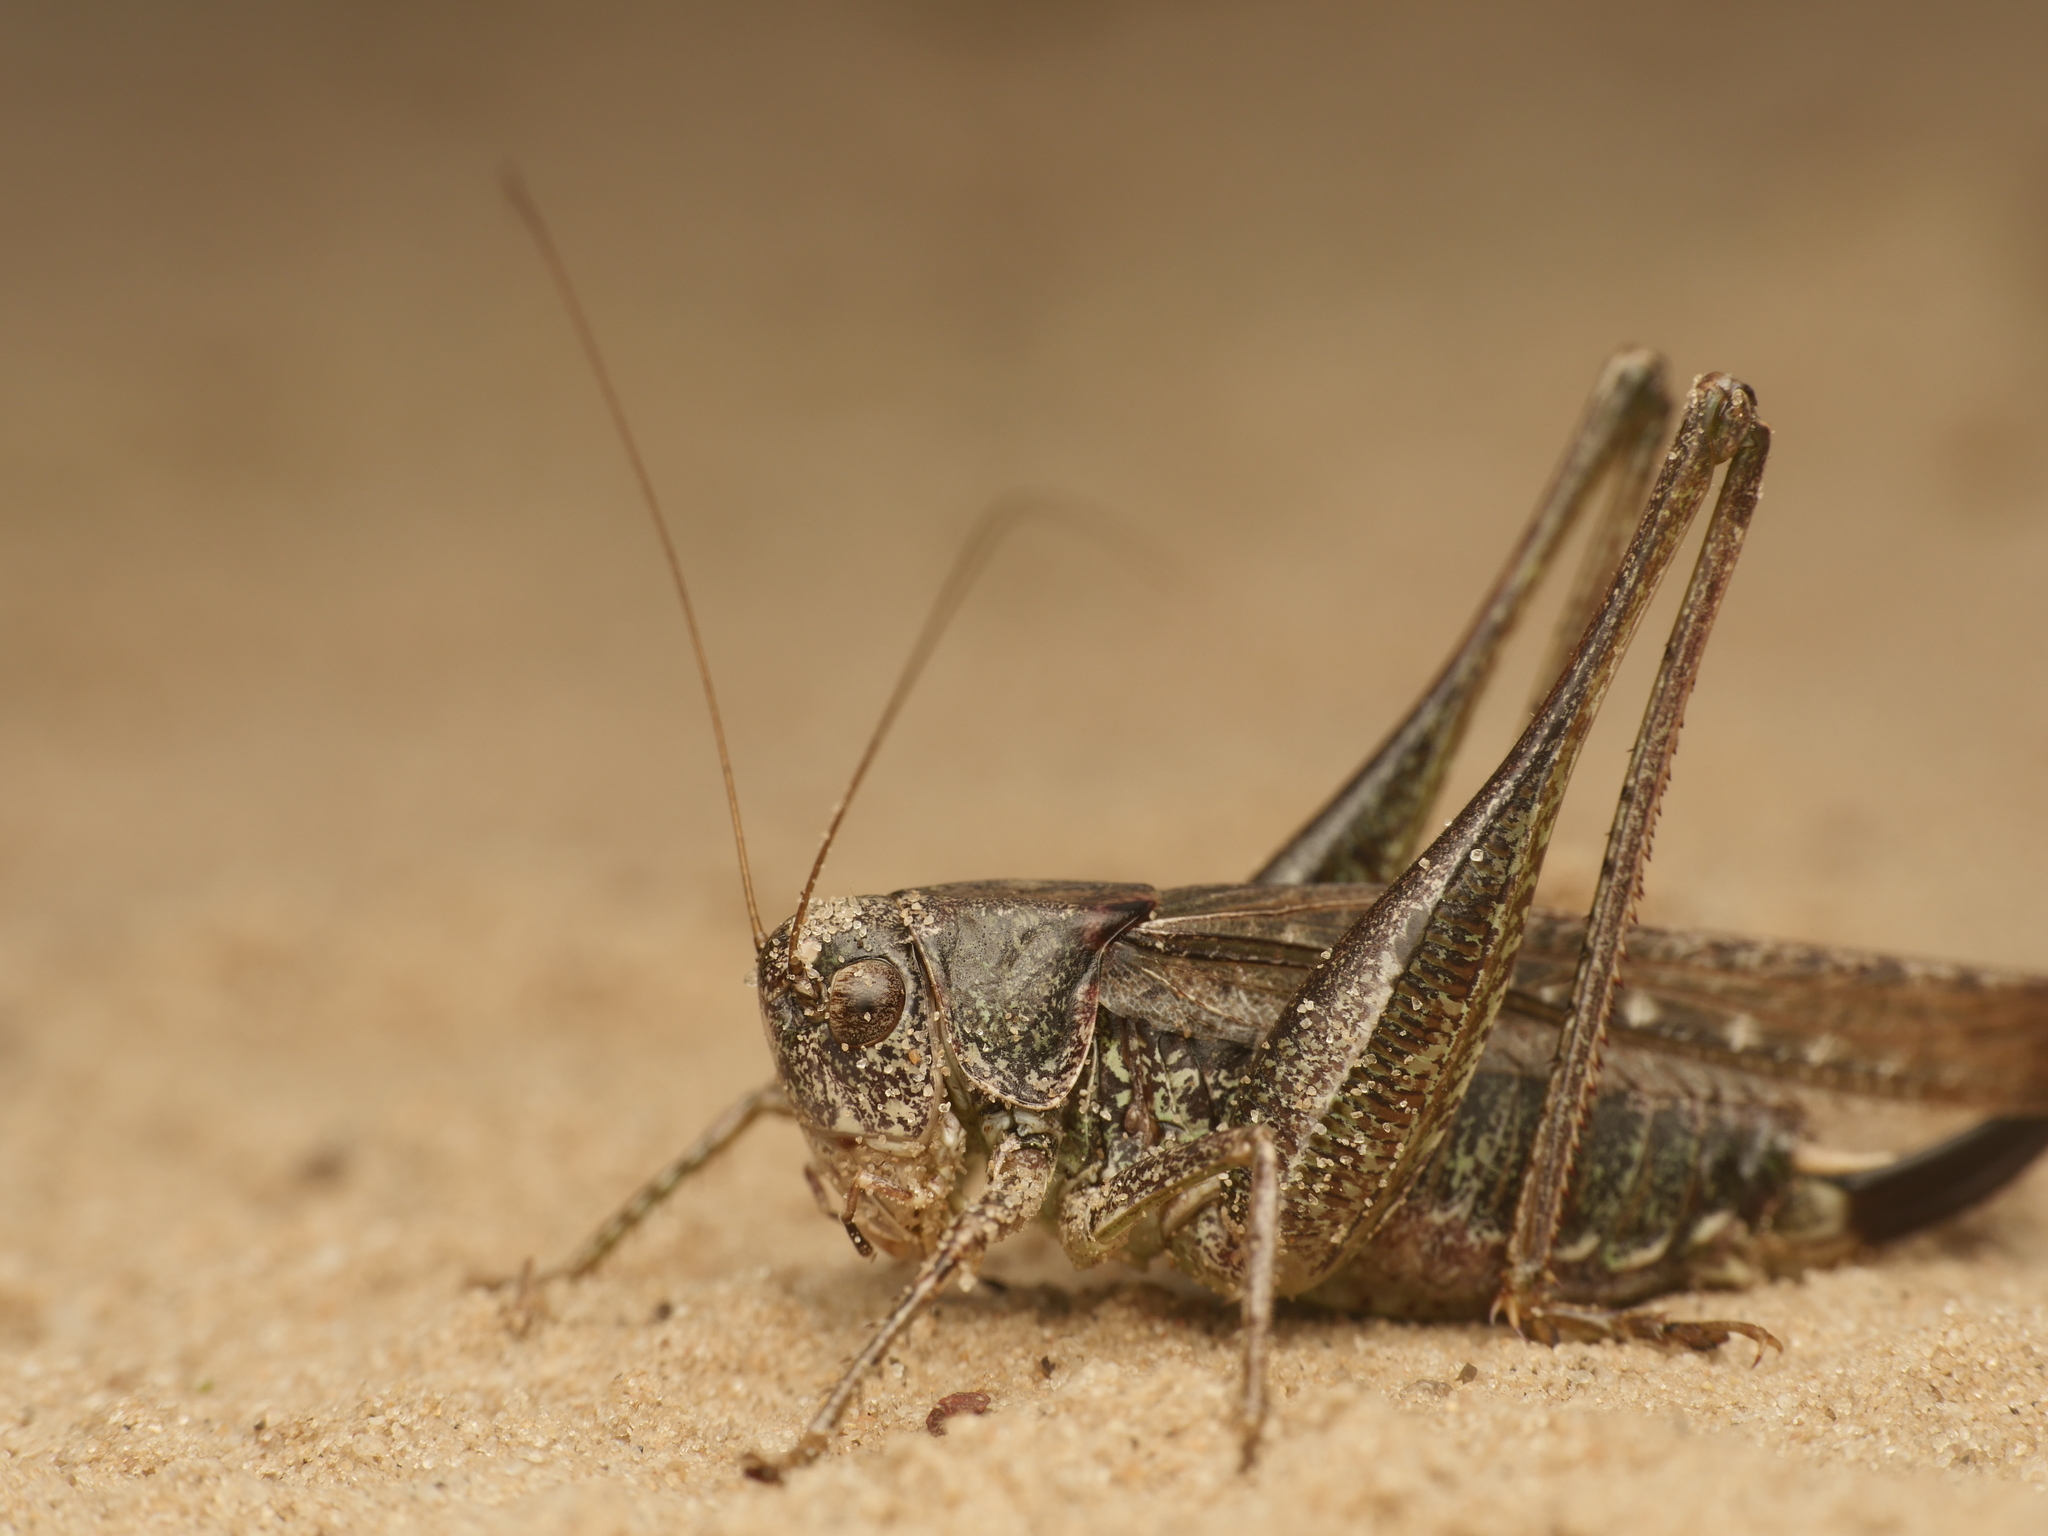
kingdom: Animalia
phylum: Arthropoda
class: Insecta
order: Orthoptera
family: Tettigoniidae
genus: Platycleis
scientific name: Platycleis albopunctata
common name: Grey bush-cricket
